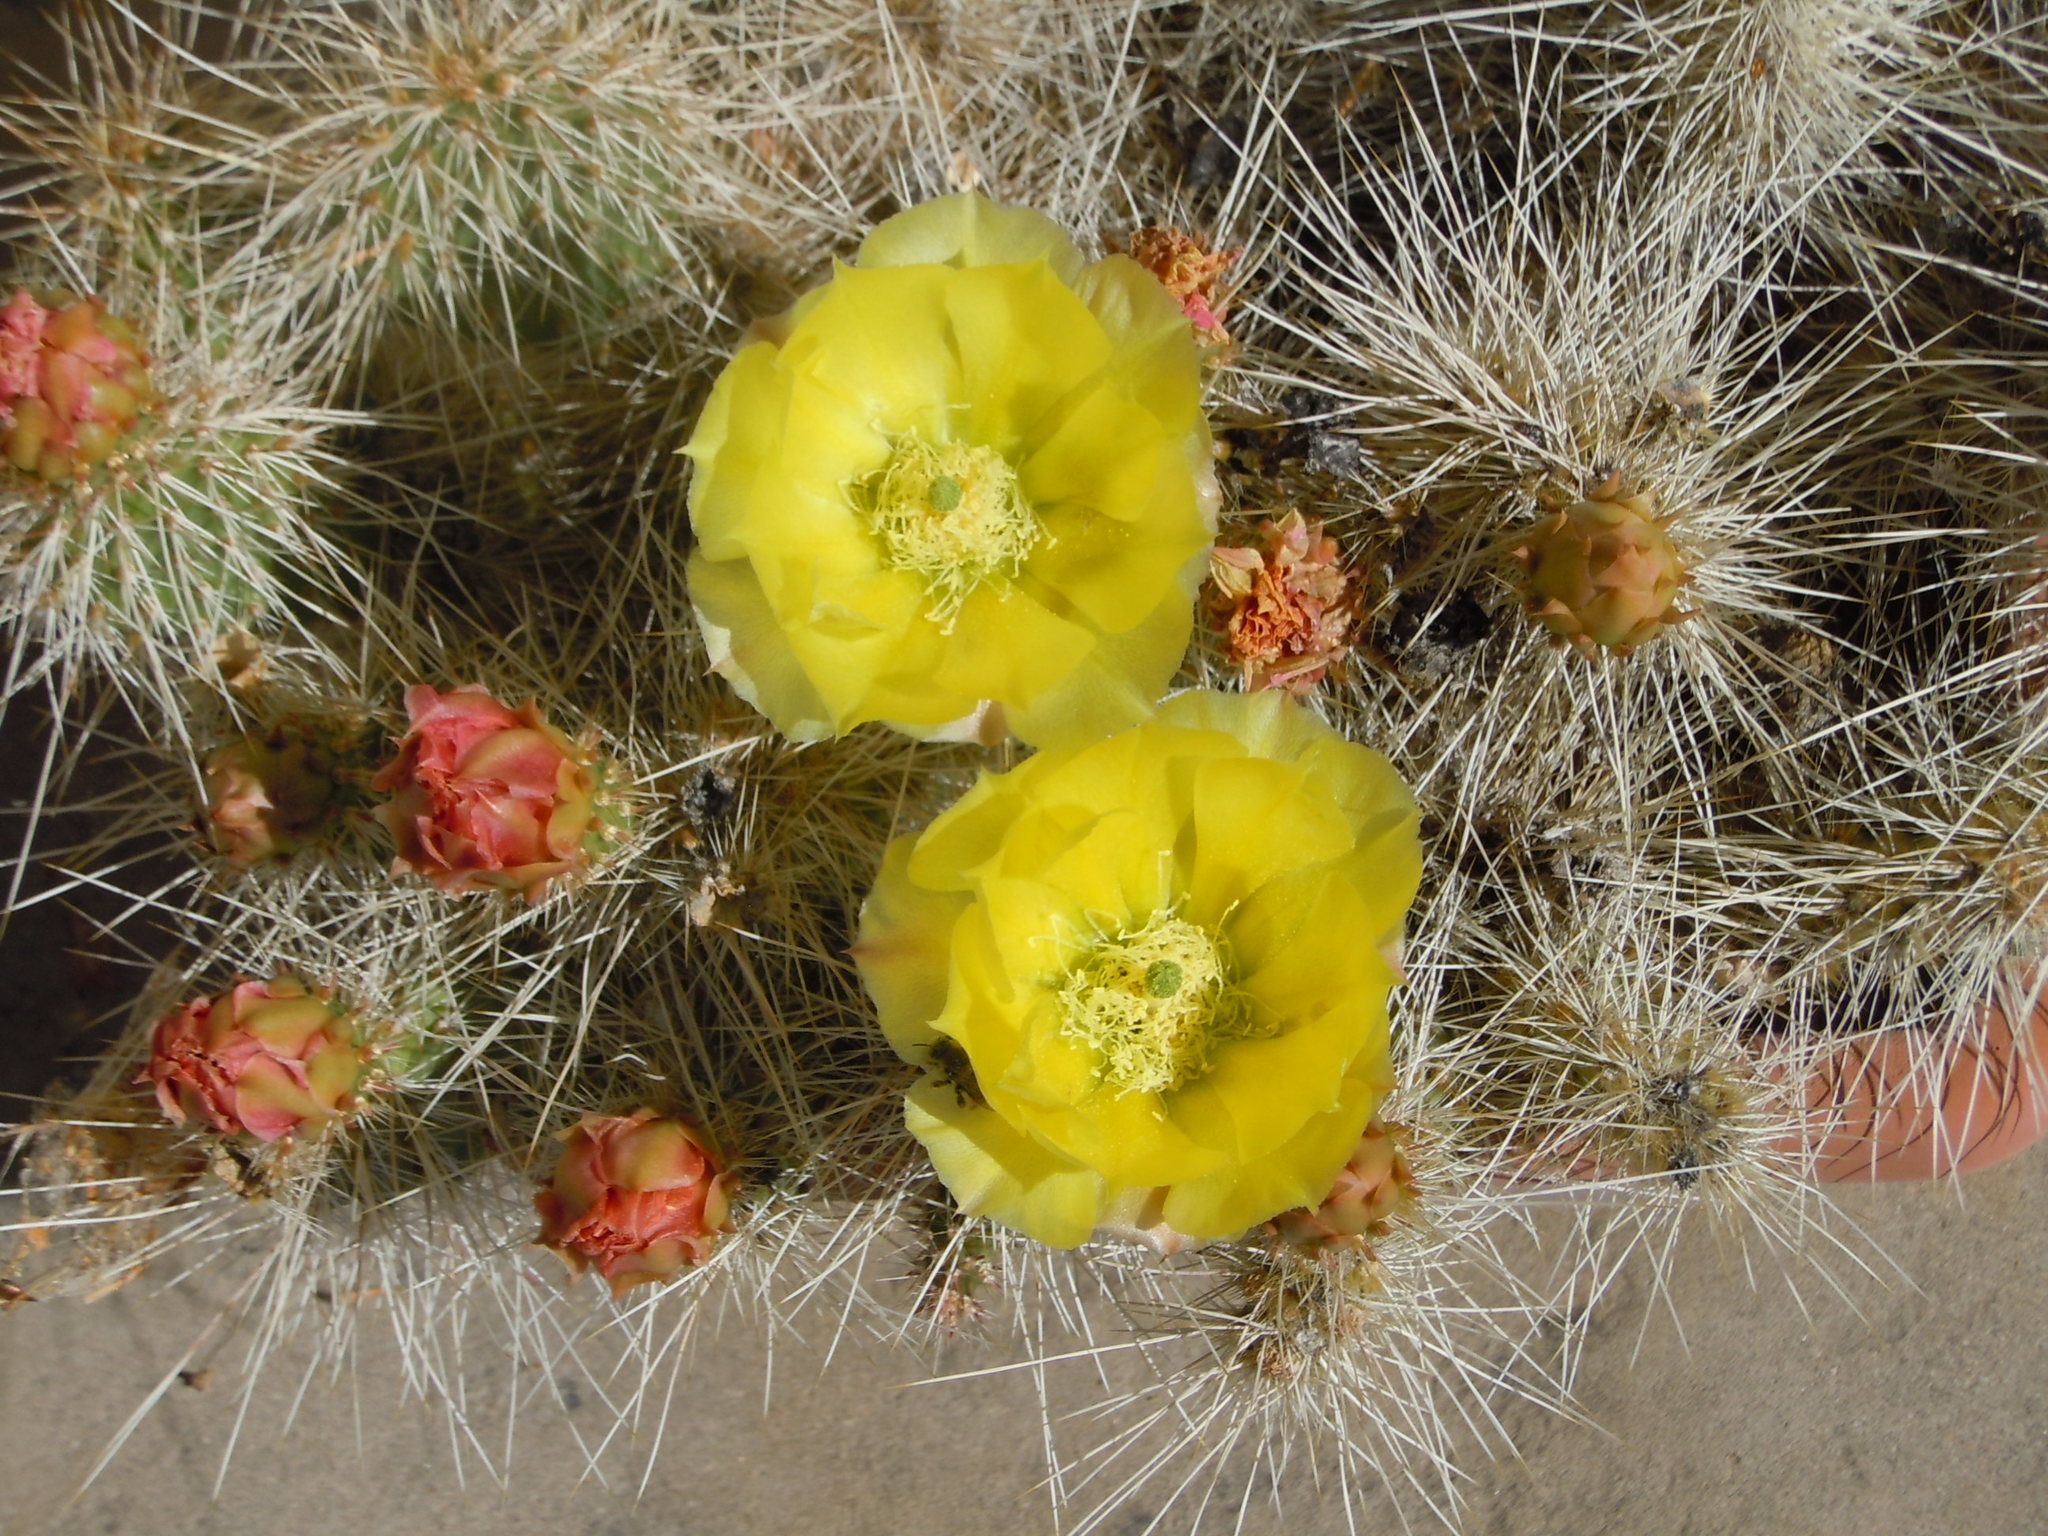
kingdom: Plantae
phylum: Tracheophyta
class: Magnoliopsida
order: Caryophyllales
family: Cactaceae
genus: Opuntia
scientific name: Opuntia polyacantha
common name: Plains prickly-pear
